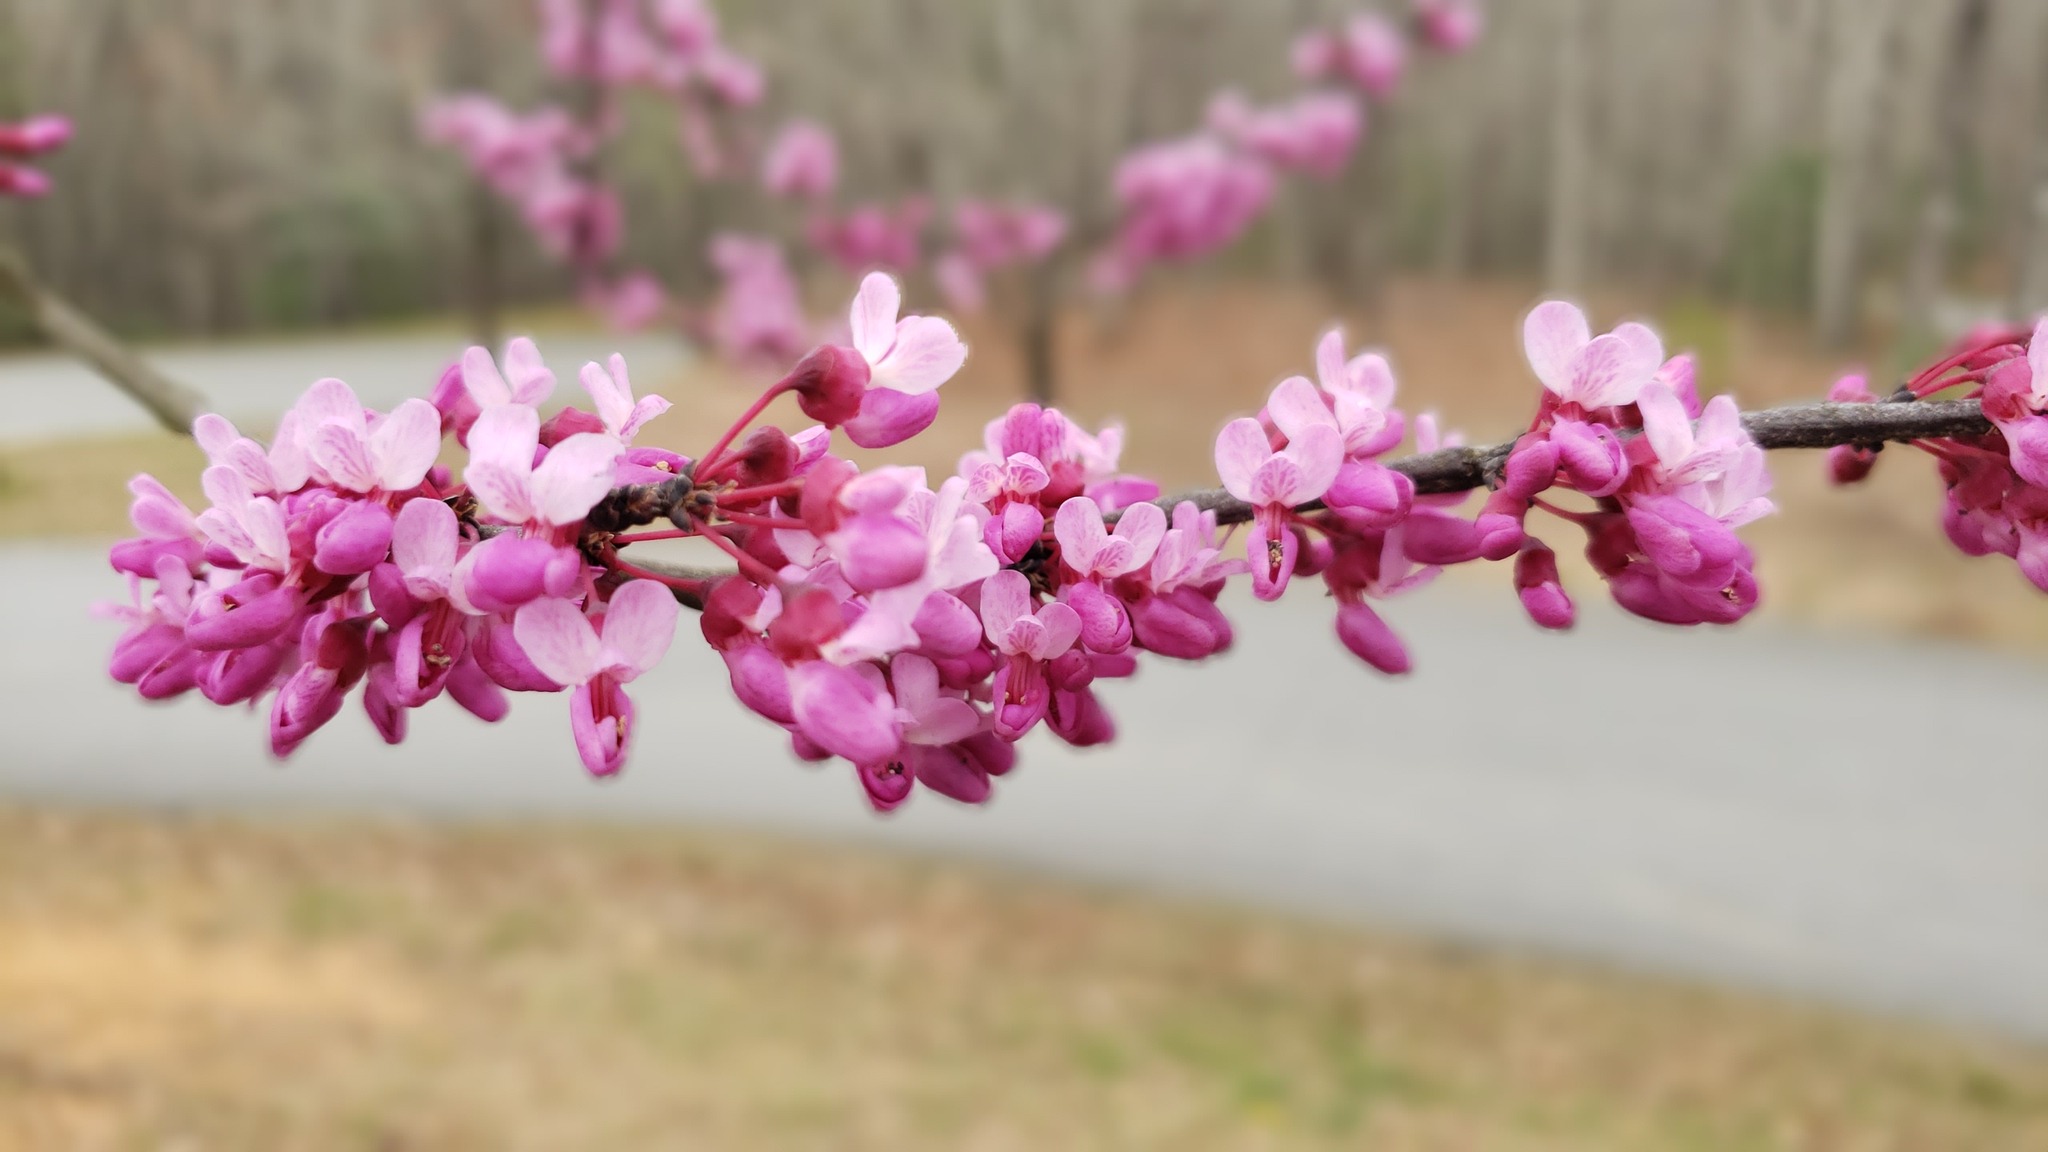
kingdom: Plantae
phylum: Tracheophyta
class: Magnoliopsida
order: Fabales
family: Fabaceae
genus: Cercis
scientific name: Cercis canadensis
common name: Eastern redbud
